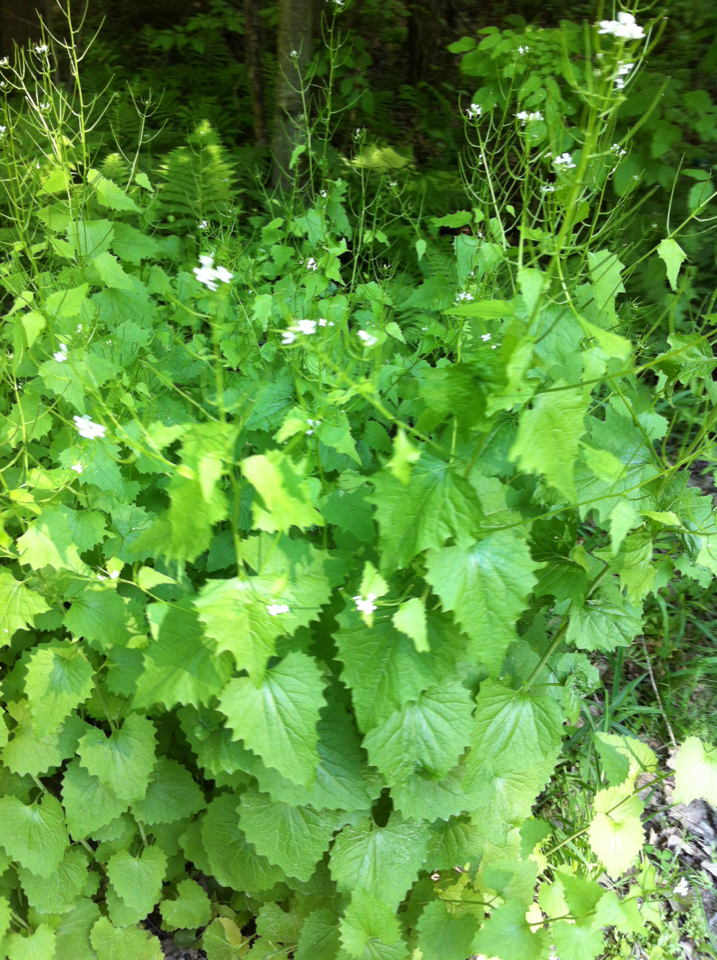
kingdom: Plantae
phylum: Tracheophyta
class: Magnoliopsida
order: Brassicales
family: Brassicaceae
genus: Alliaria
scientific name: Alliaria petiolata
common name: Garlic mustard
